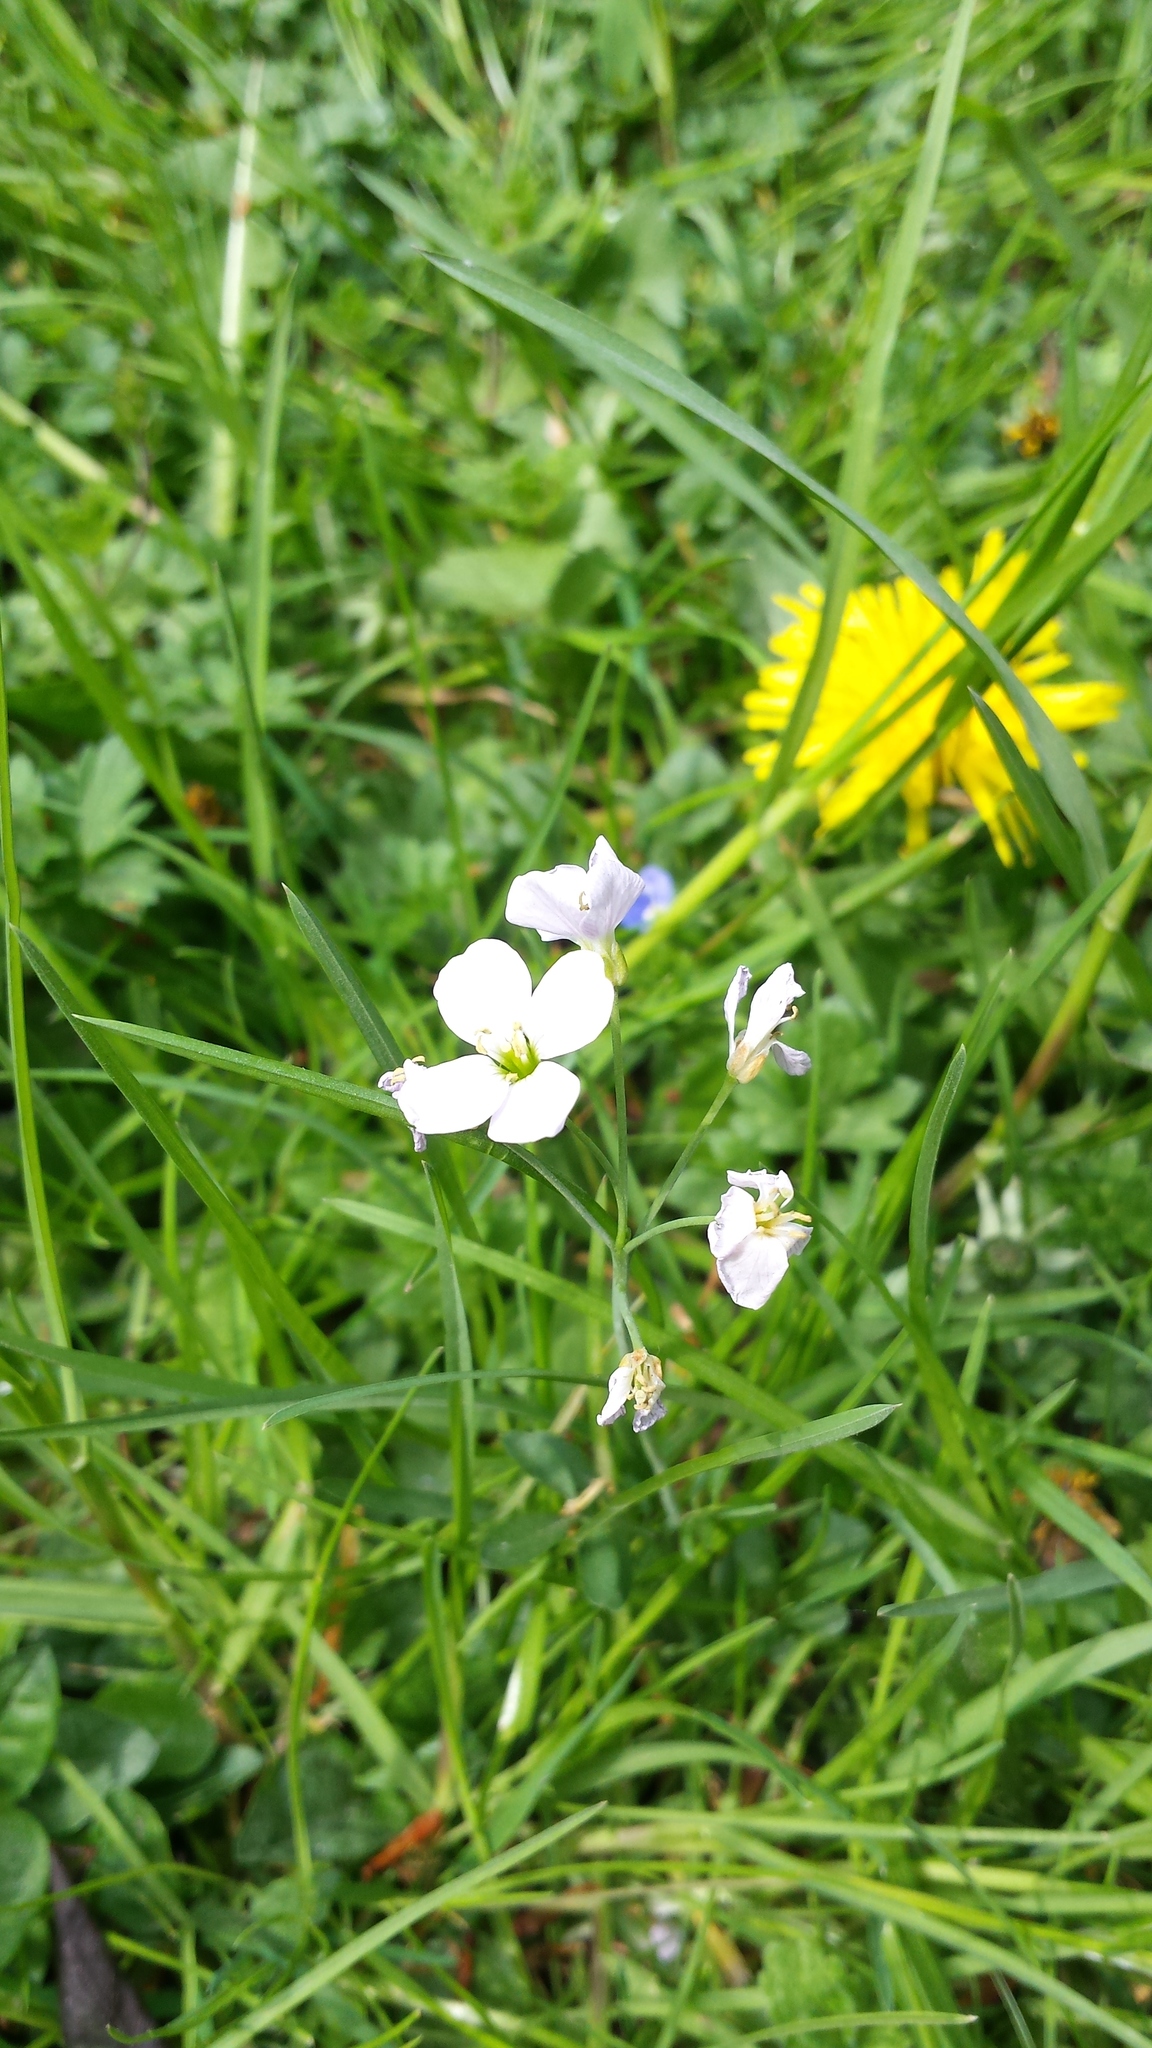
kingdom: Plantae
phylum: Tracheophyta
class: Magnoliopsida
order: Brassicales
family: Brassicaceae
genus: Cardamine
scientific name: Cardamine pratensis
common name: Cuckoo flower
